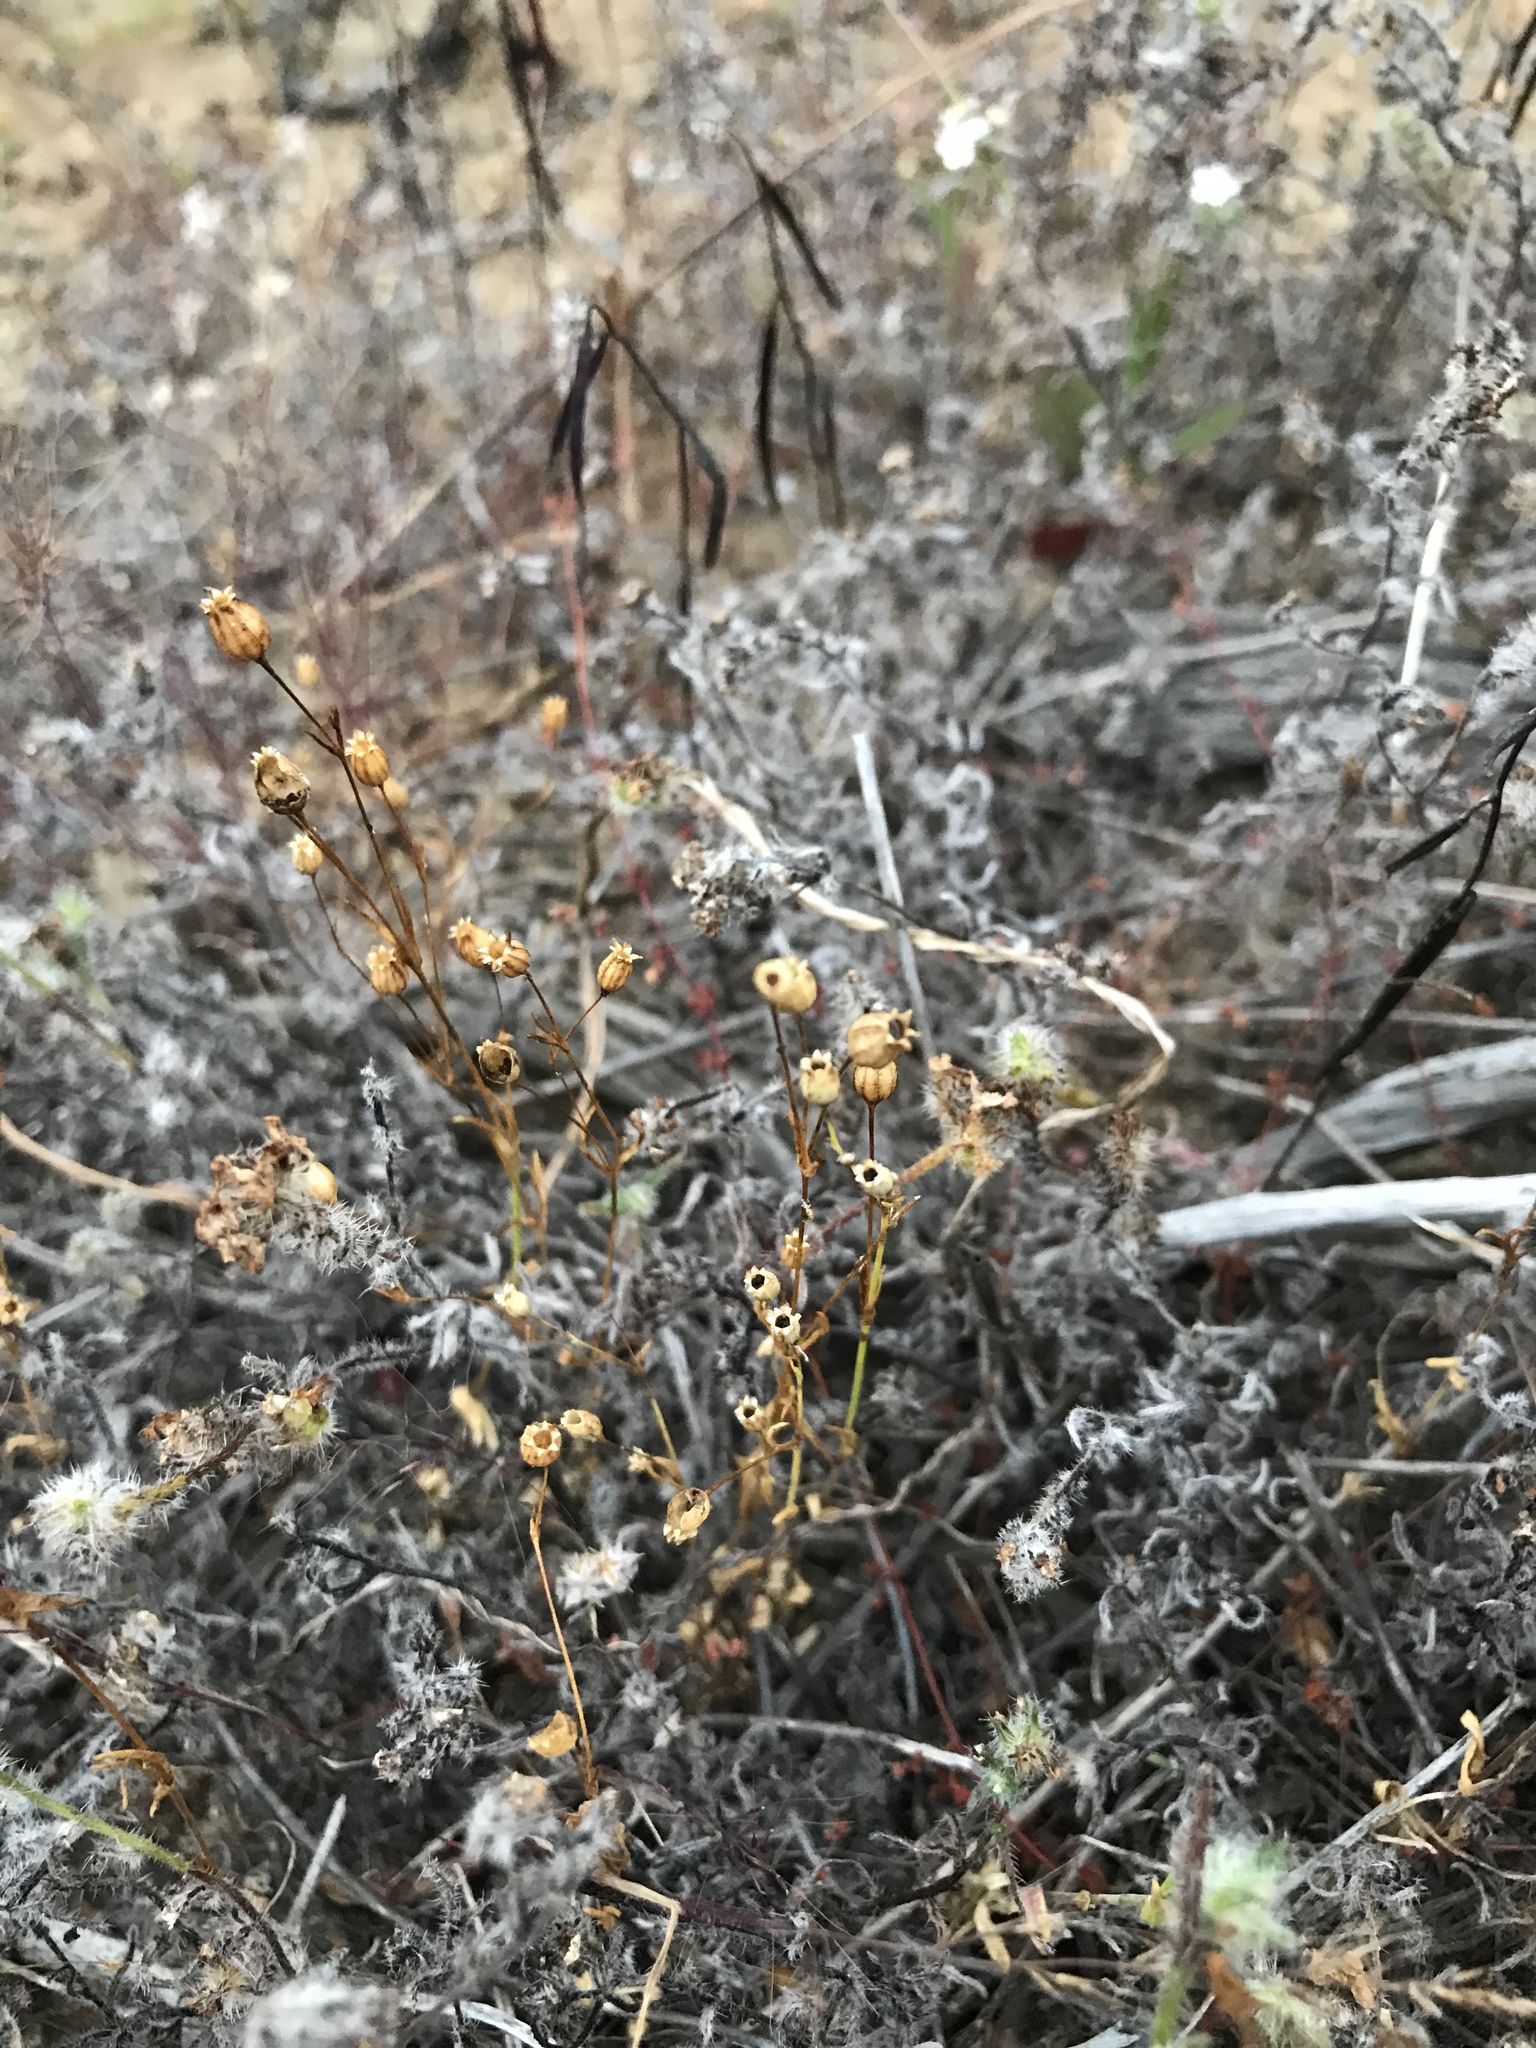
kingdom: Plantae
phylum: Tracheophyta
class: Magnoliopsida
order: Caryophyllales
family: Caryophyllaceae
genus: Silene
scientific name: Silene antirrhina
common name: Sleepy catchfly
